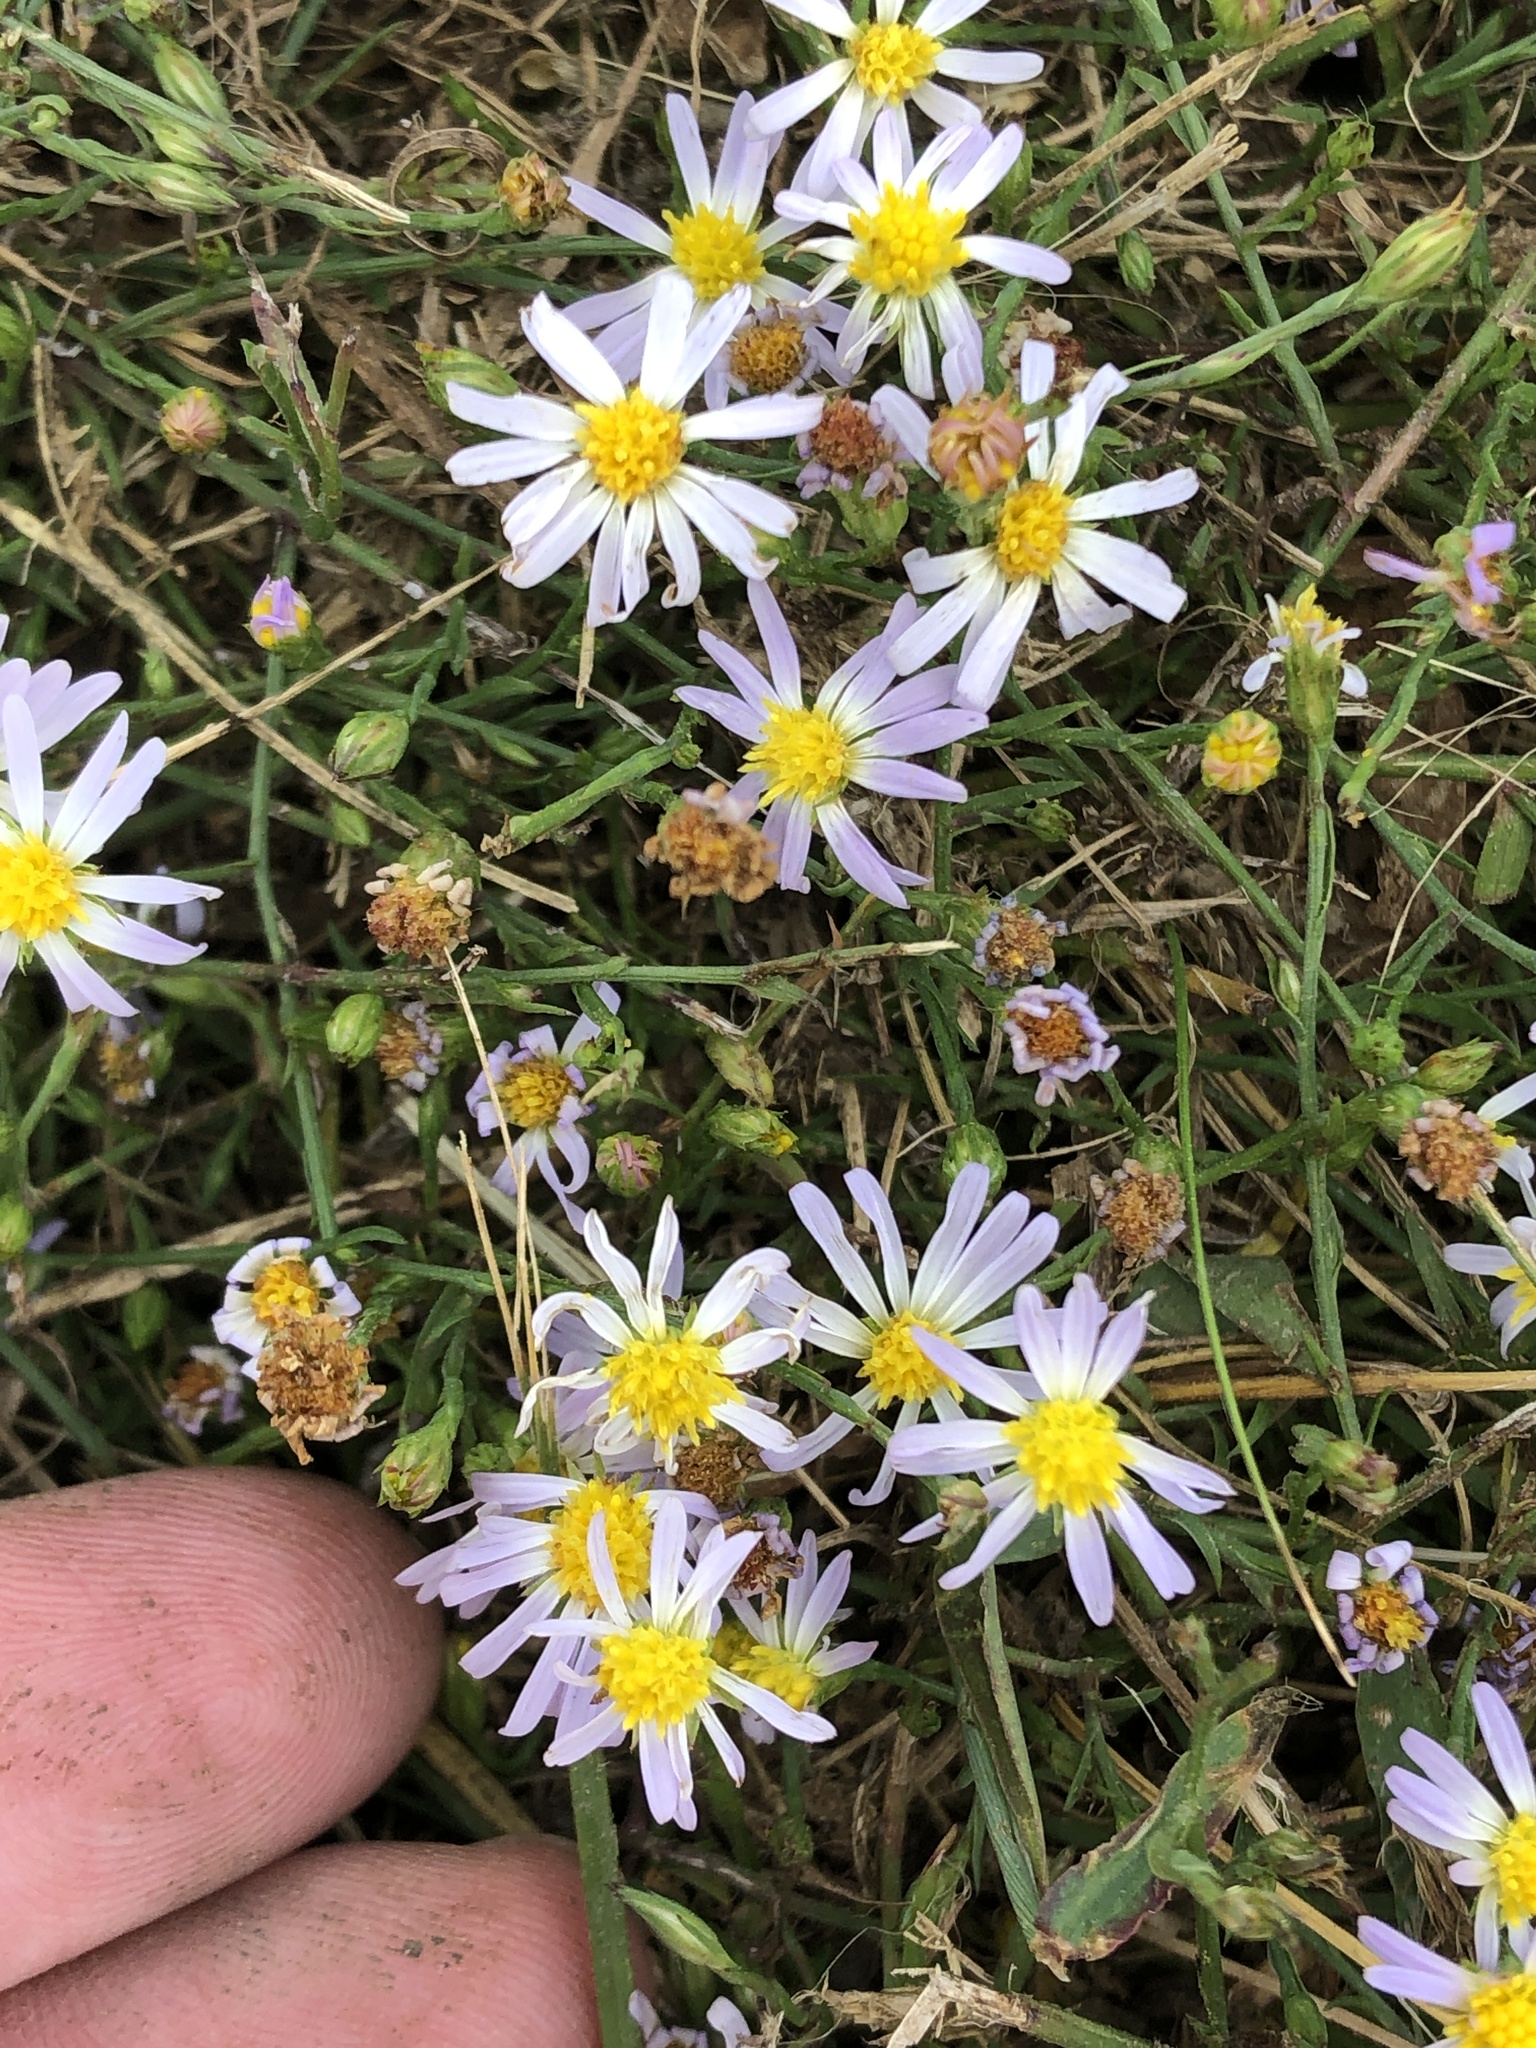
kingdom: Plantae
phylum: Tracheophyta
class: Magnoliopsida
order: Asterales
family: Asteraceae
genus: Symphyotrichum
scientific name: Symphyotrichum divaricatum
